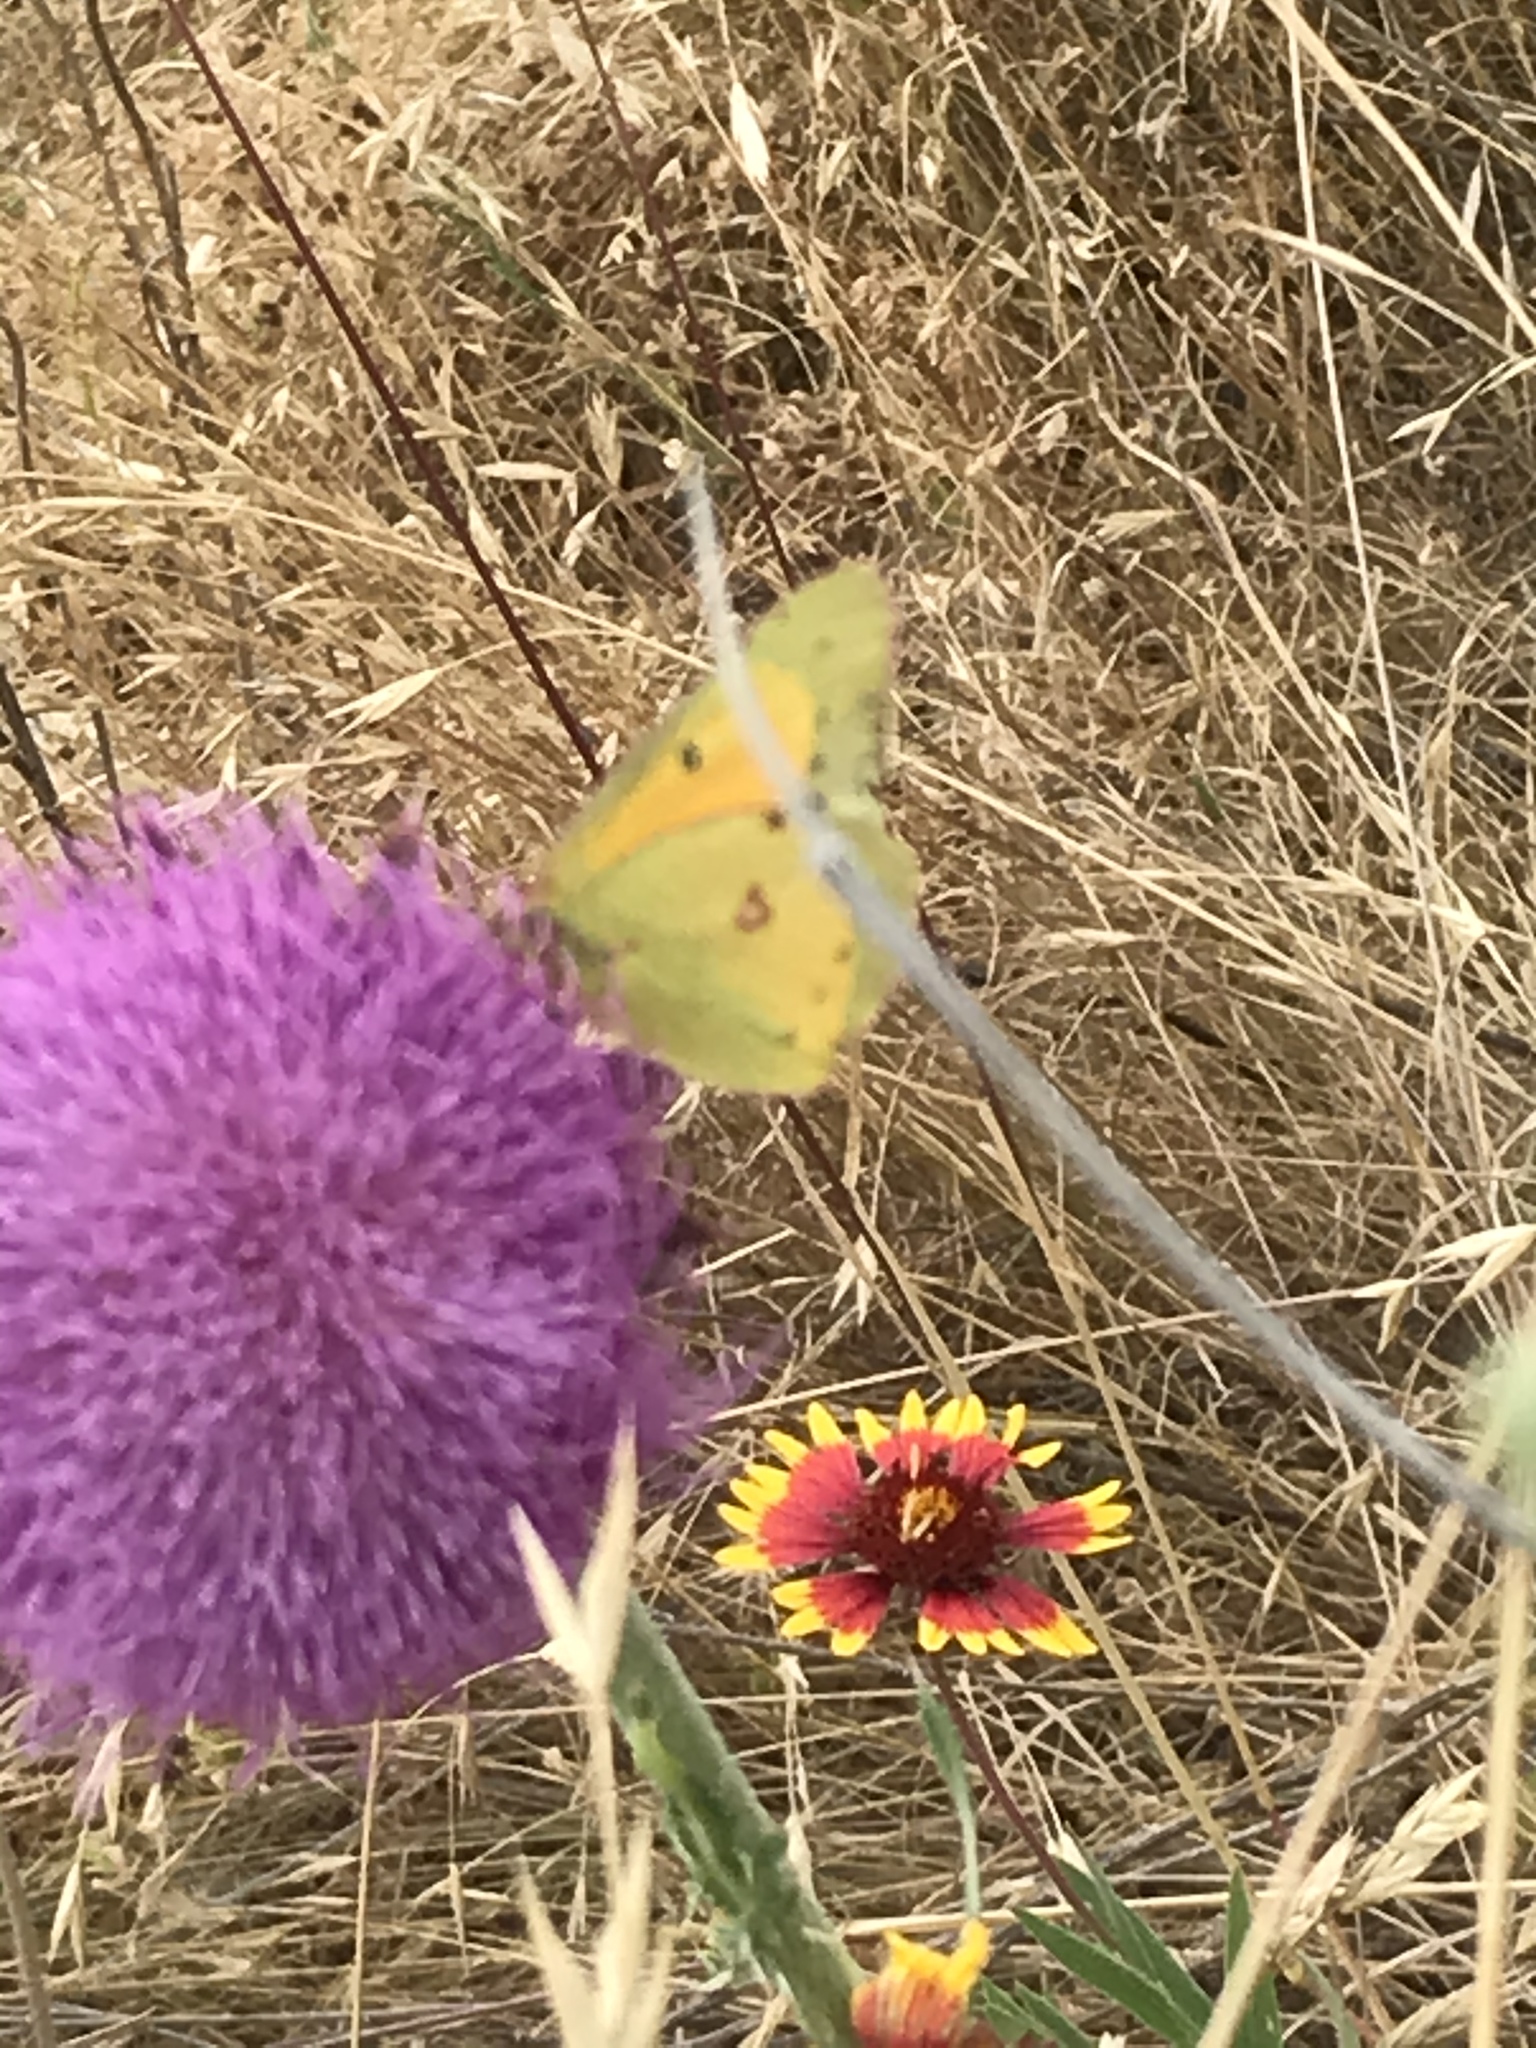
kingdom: Animalia
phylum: Arthropoda
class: Insecta
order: Lepidoptera
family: Pieridae
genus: Colias
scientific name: Colias eurytheme
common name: Alfalfa butterfly
